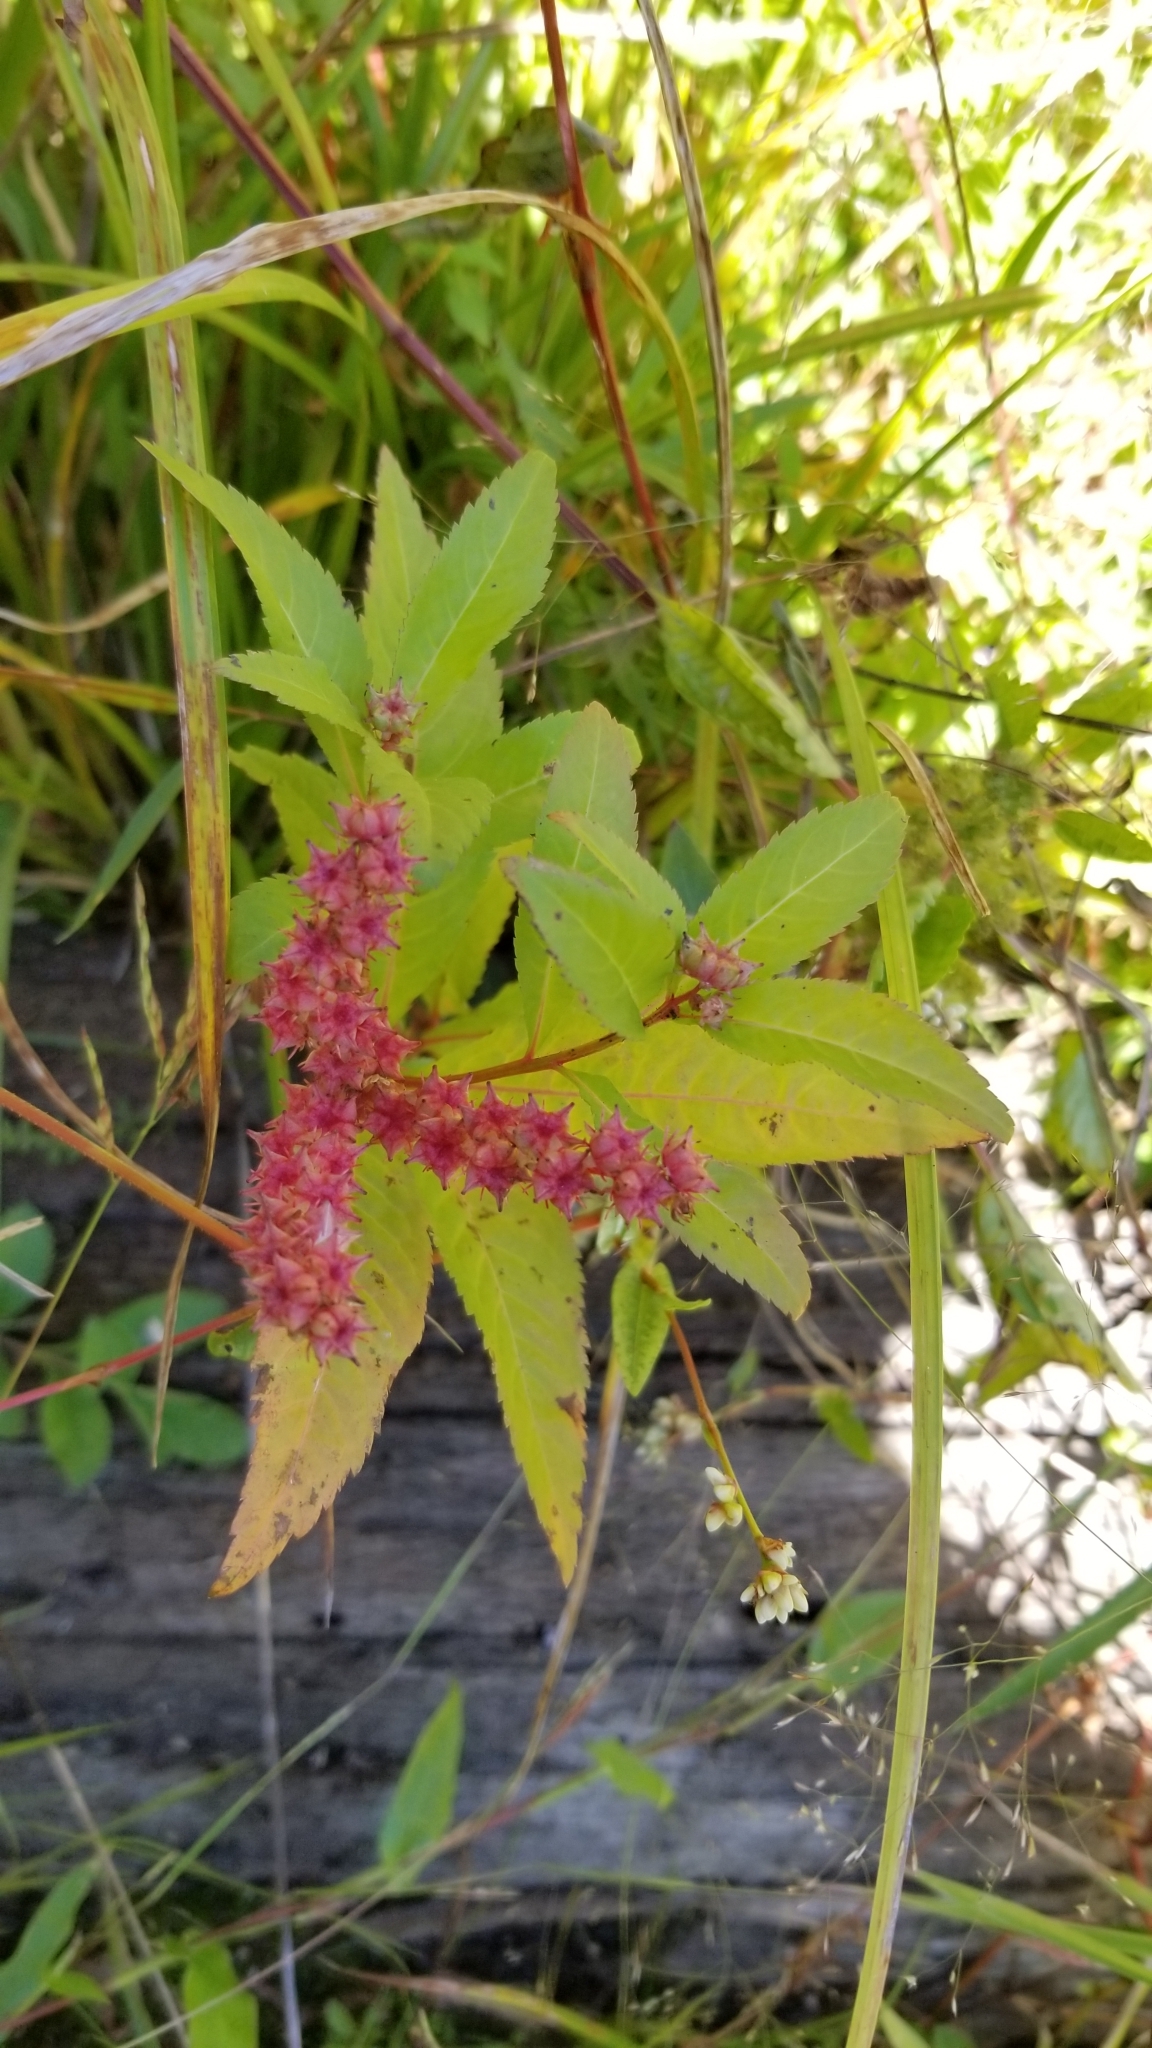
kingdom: Plantae
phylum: Tracheophyta
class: Magnoliopsida
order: Saxifragales
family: Penthoraceae
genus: Penthorum
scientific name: Penthorum sedoides
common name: Ditch stonecrop
